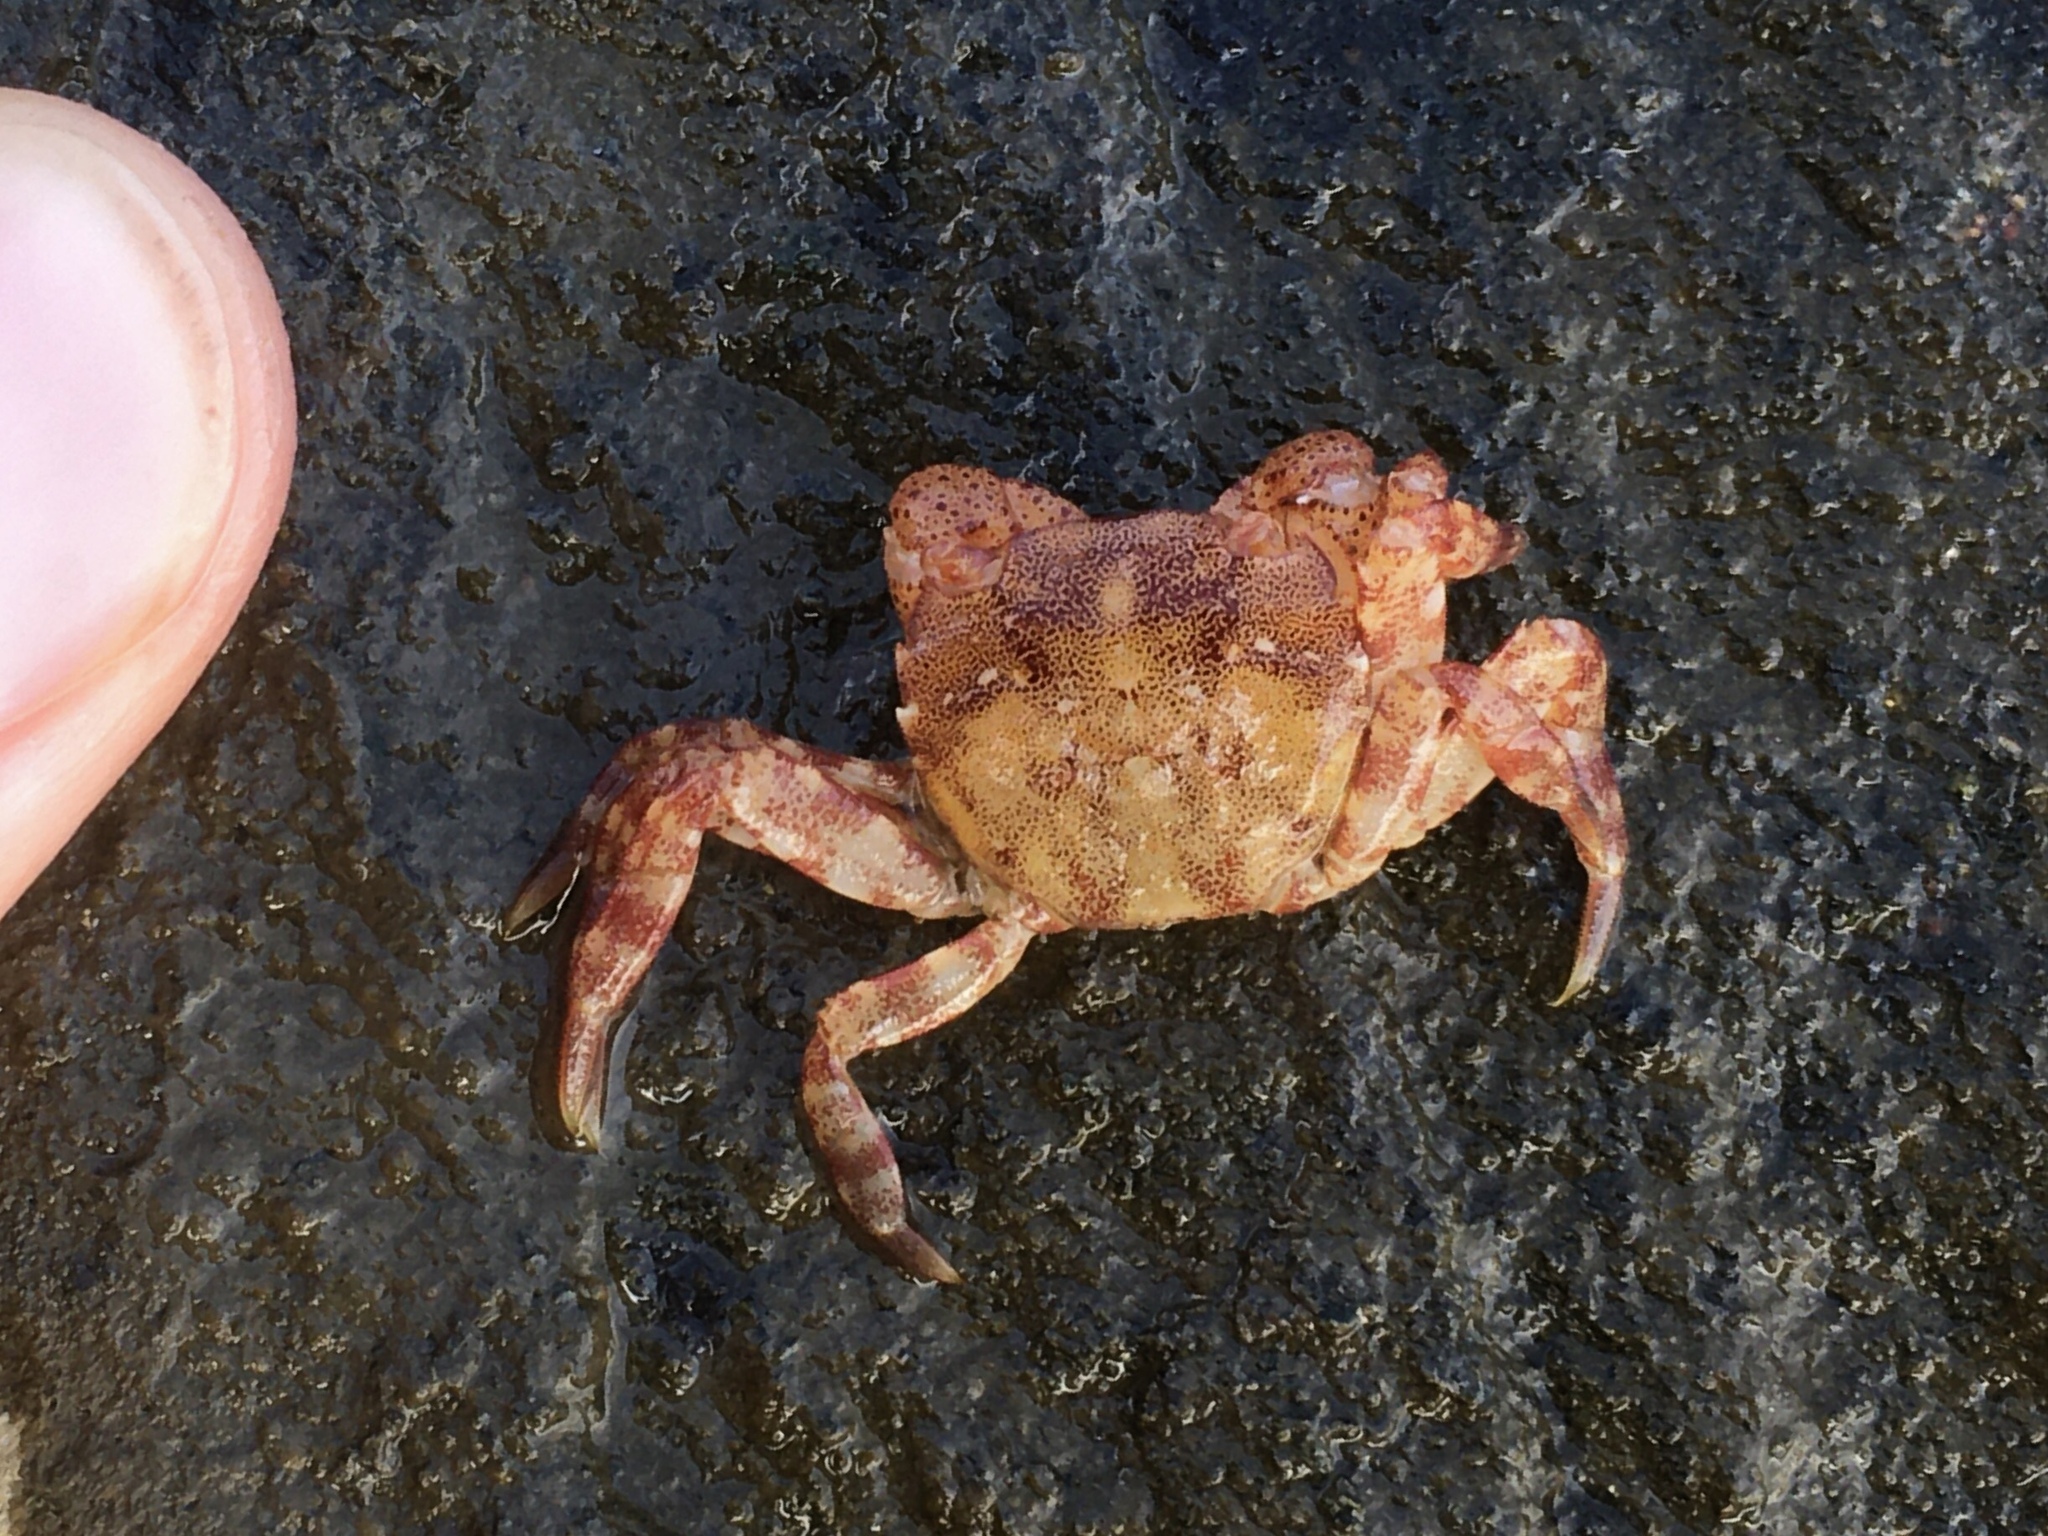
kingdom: Animalia
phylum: Arthropoda
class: Malacostraca
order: Decapoda
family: Varunidae
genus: Hemigrapsus
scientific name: Hemigrapsus sanguineus
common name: Asian shore crab
